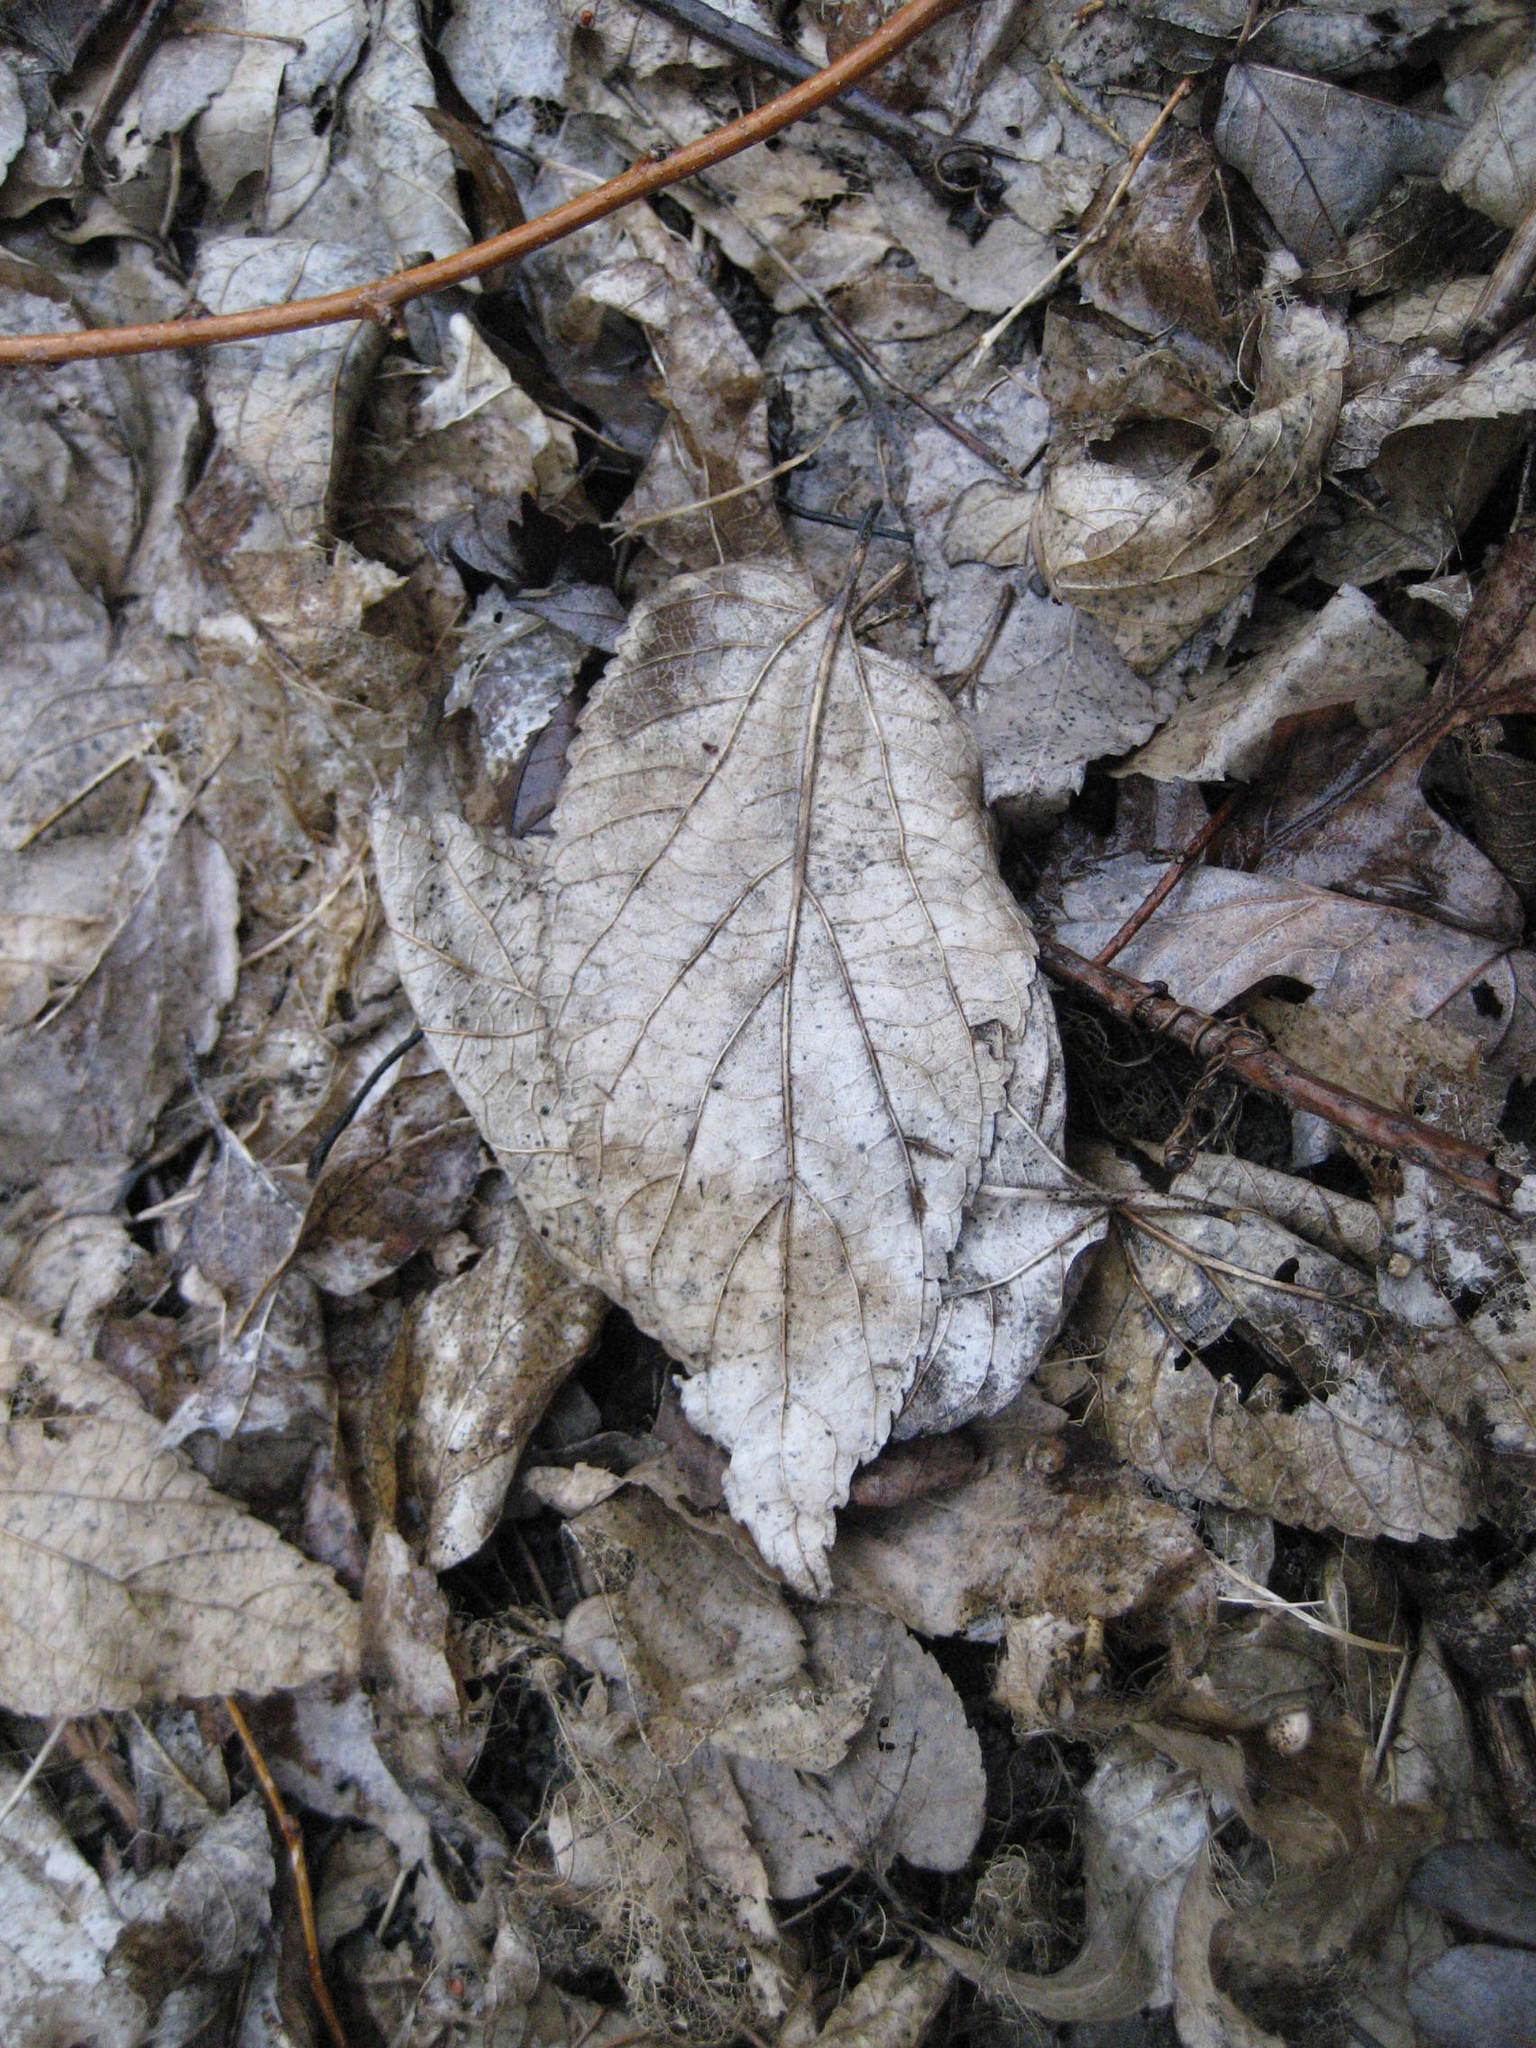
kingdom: Plantae
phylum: Tracheophyta
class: Magnoliopsida
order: Rosales
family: Cannabaceae
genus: Celtis
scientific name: Celtis occidentalis
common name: Common hackberry
